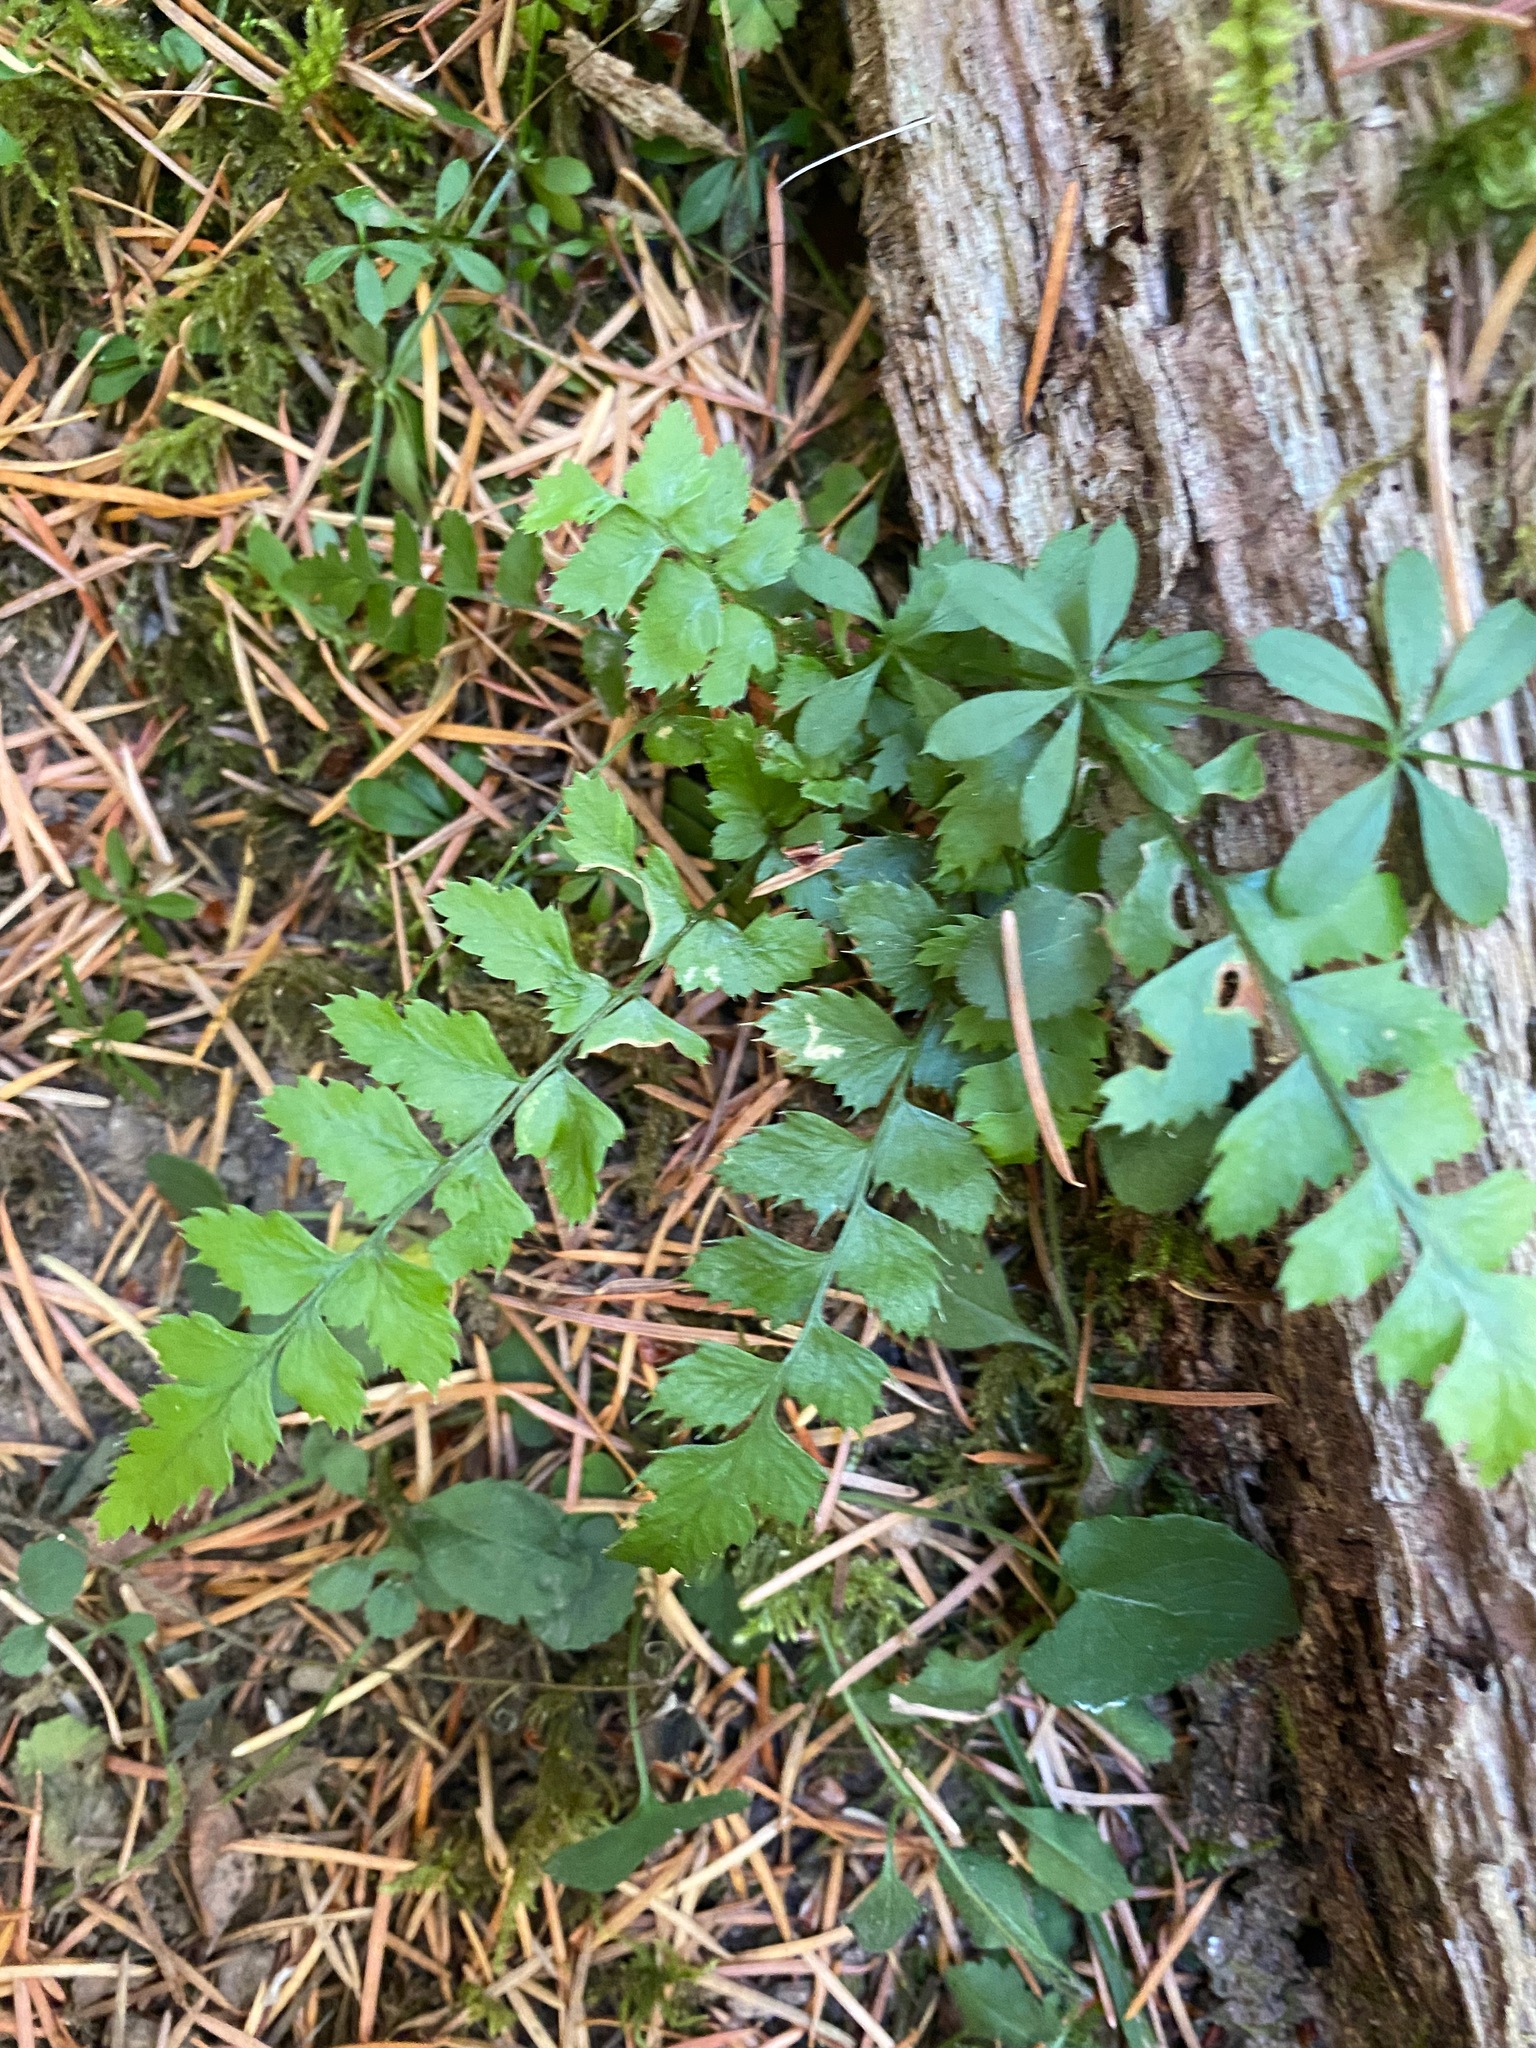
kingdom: Plantae
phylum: Tracheophyta
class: Polypodiopsida
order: Polypodiales
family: Dryopteridaceae
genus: Polystichum
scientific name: Polystichum munitum
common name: Western sword-fern
